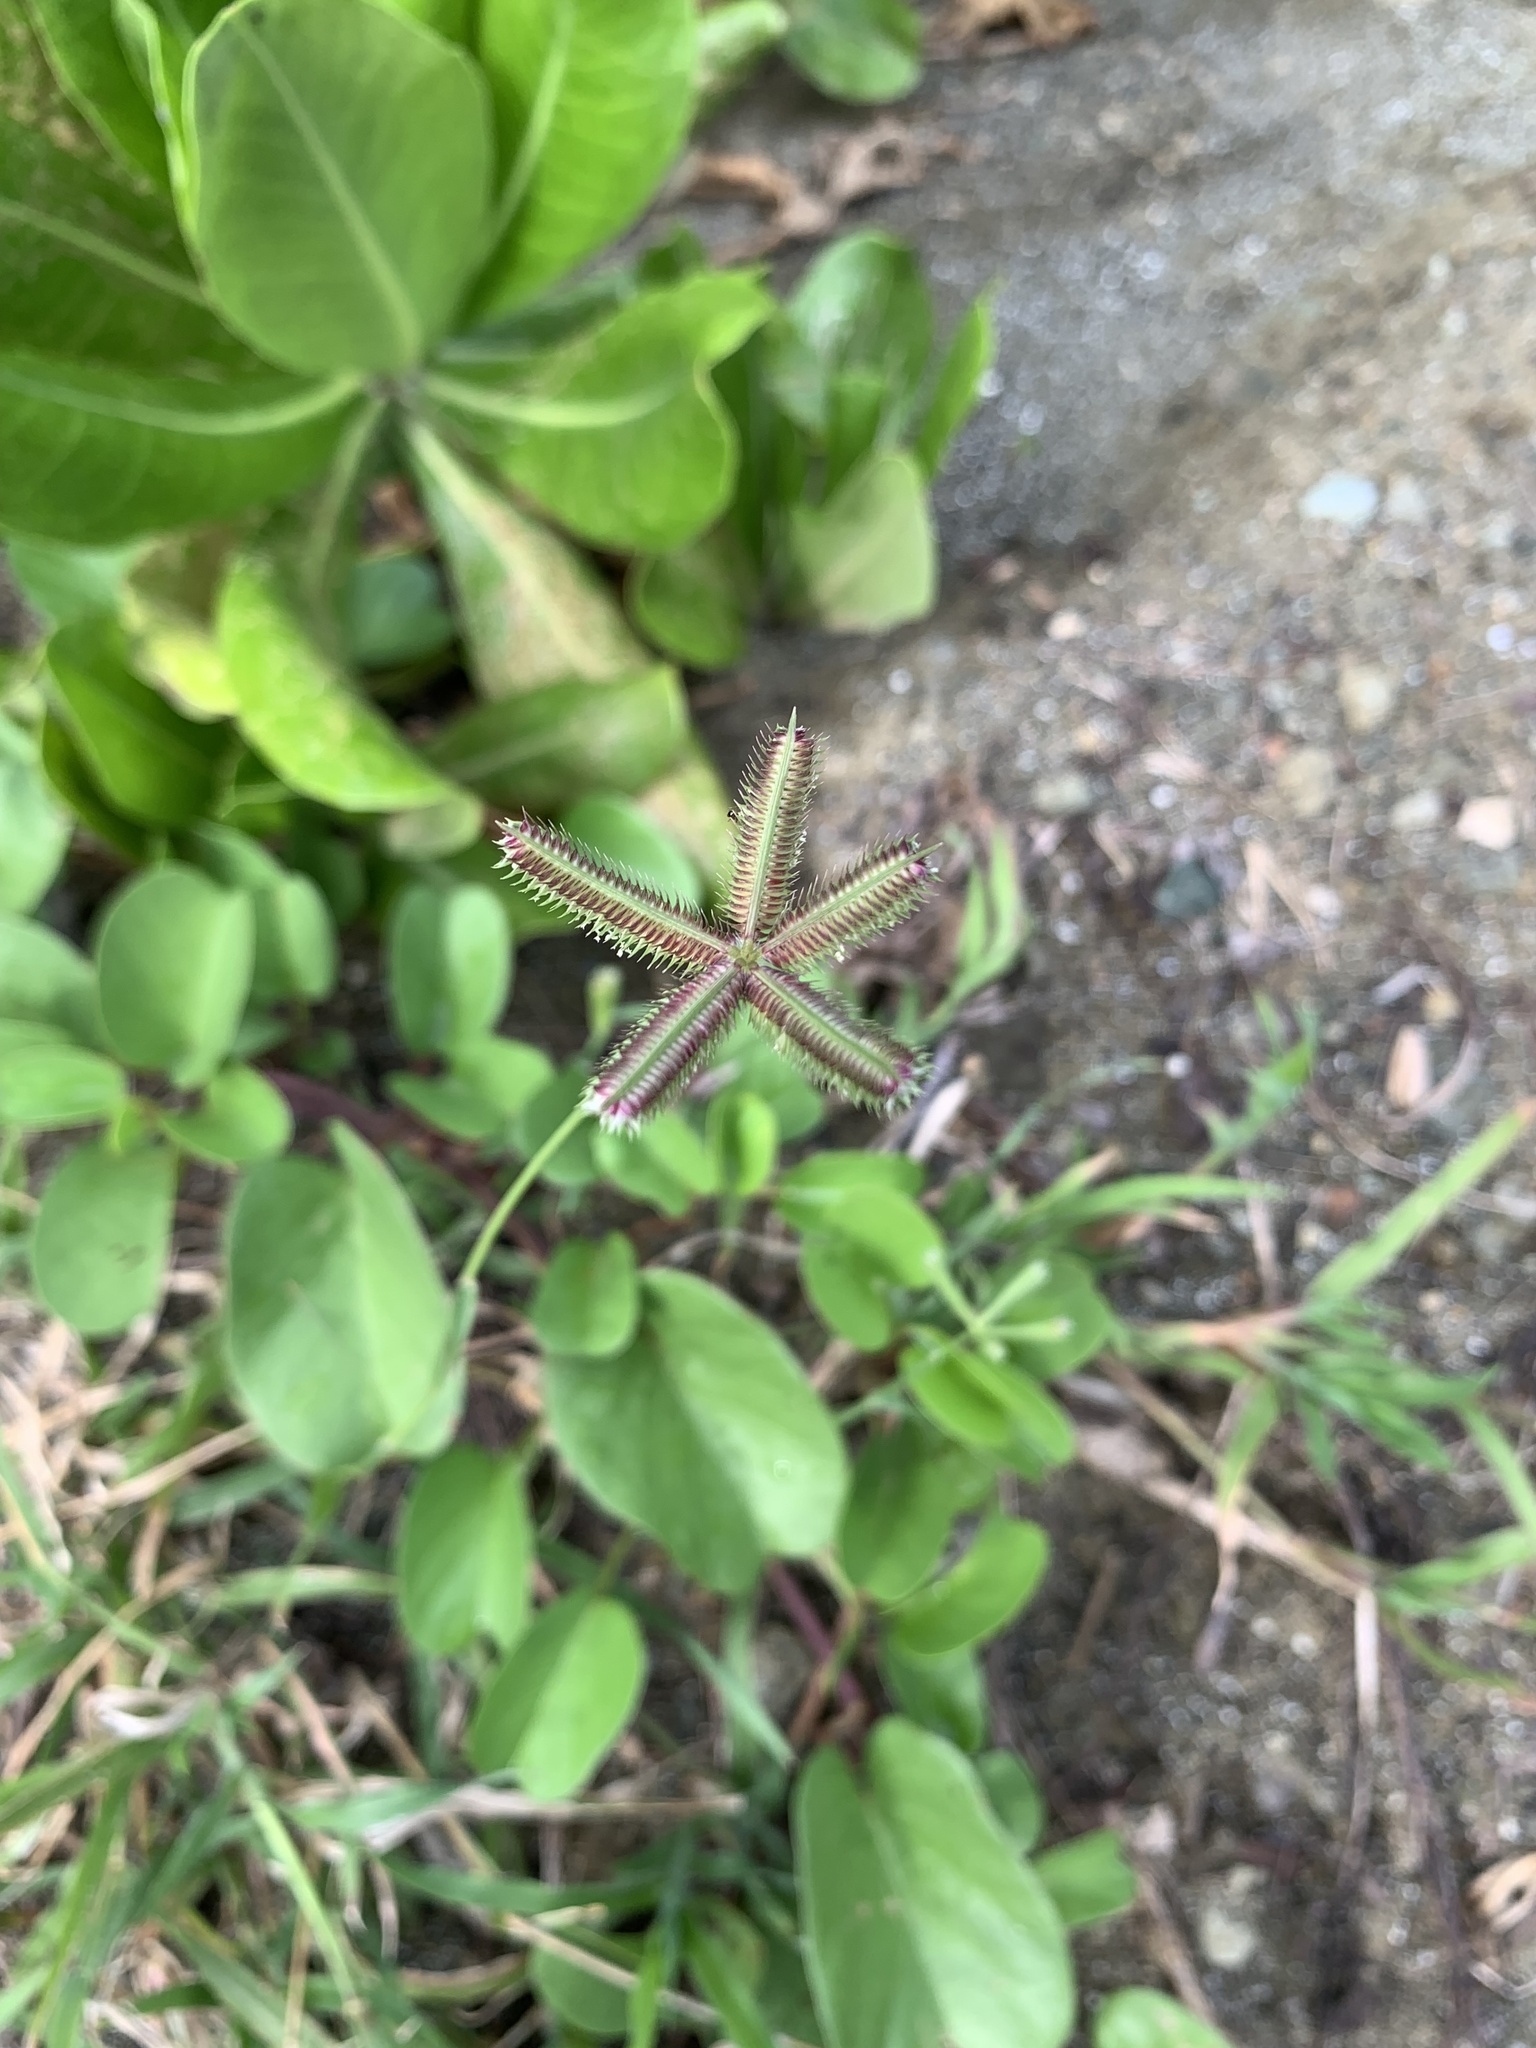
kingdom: Plantae
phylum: Tracheophyta
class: Liliopsida
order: Poales
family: Poaceae
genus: Dactyloctenium
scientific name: Dactyloctenium aegyptium
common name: Egyptian grass
